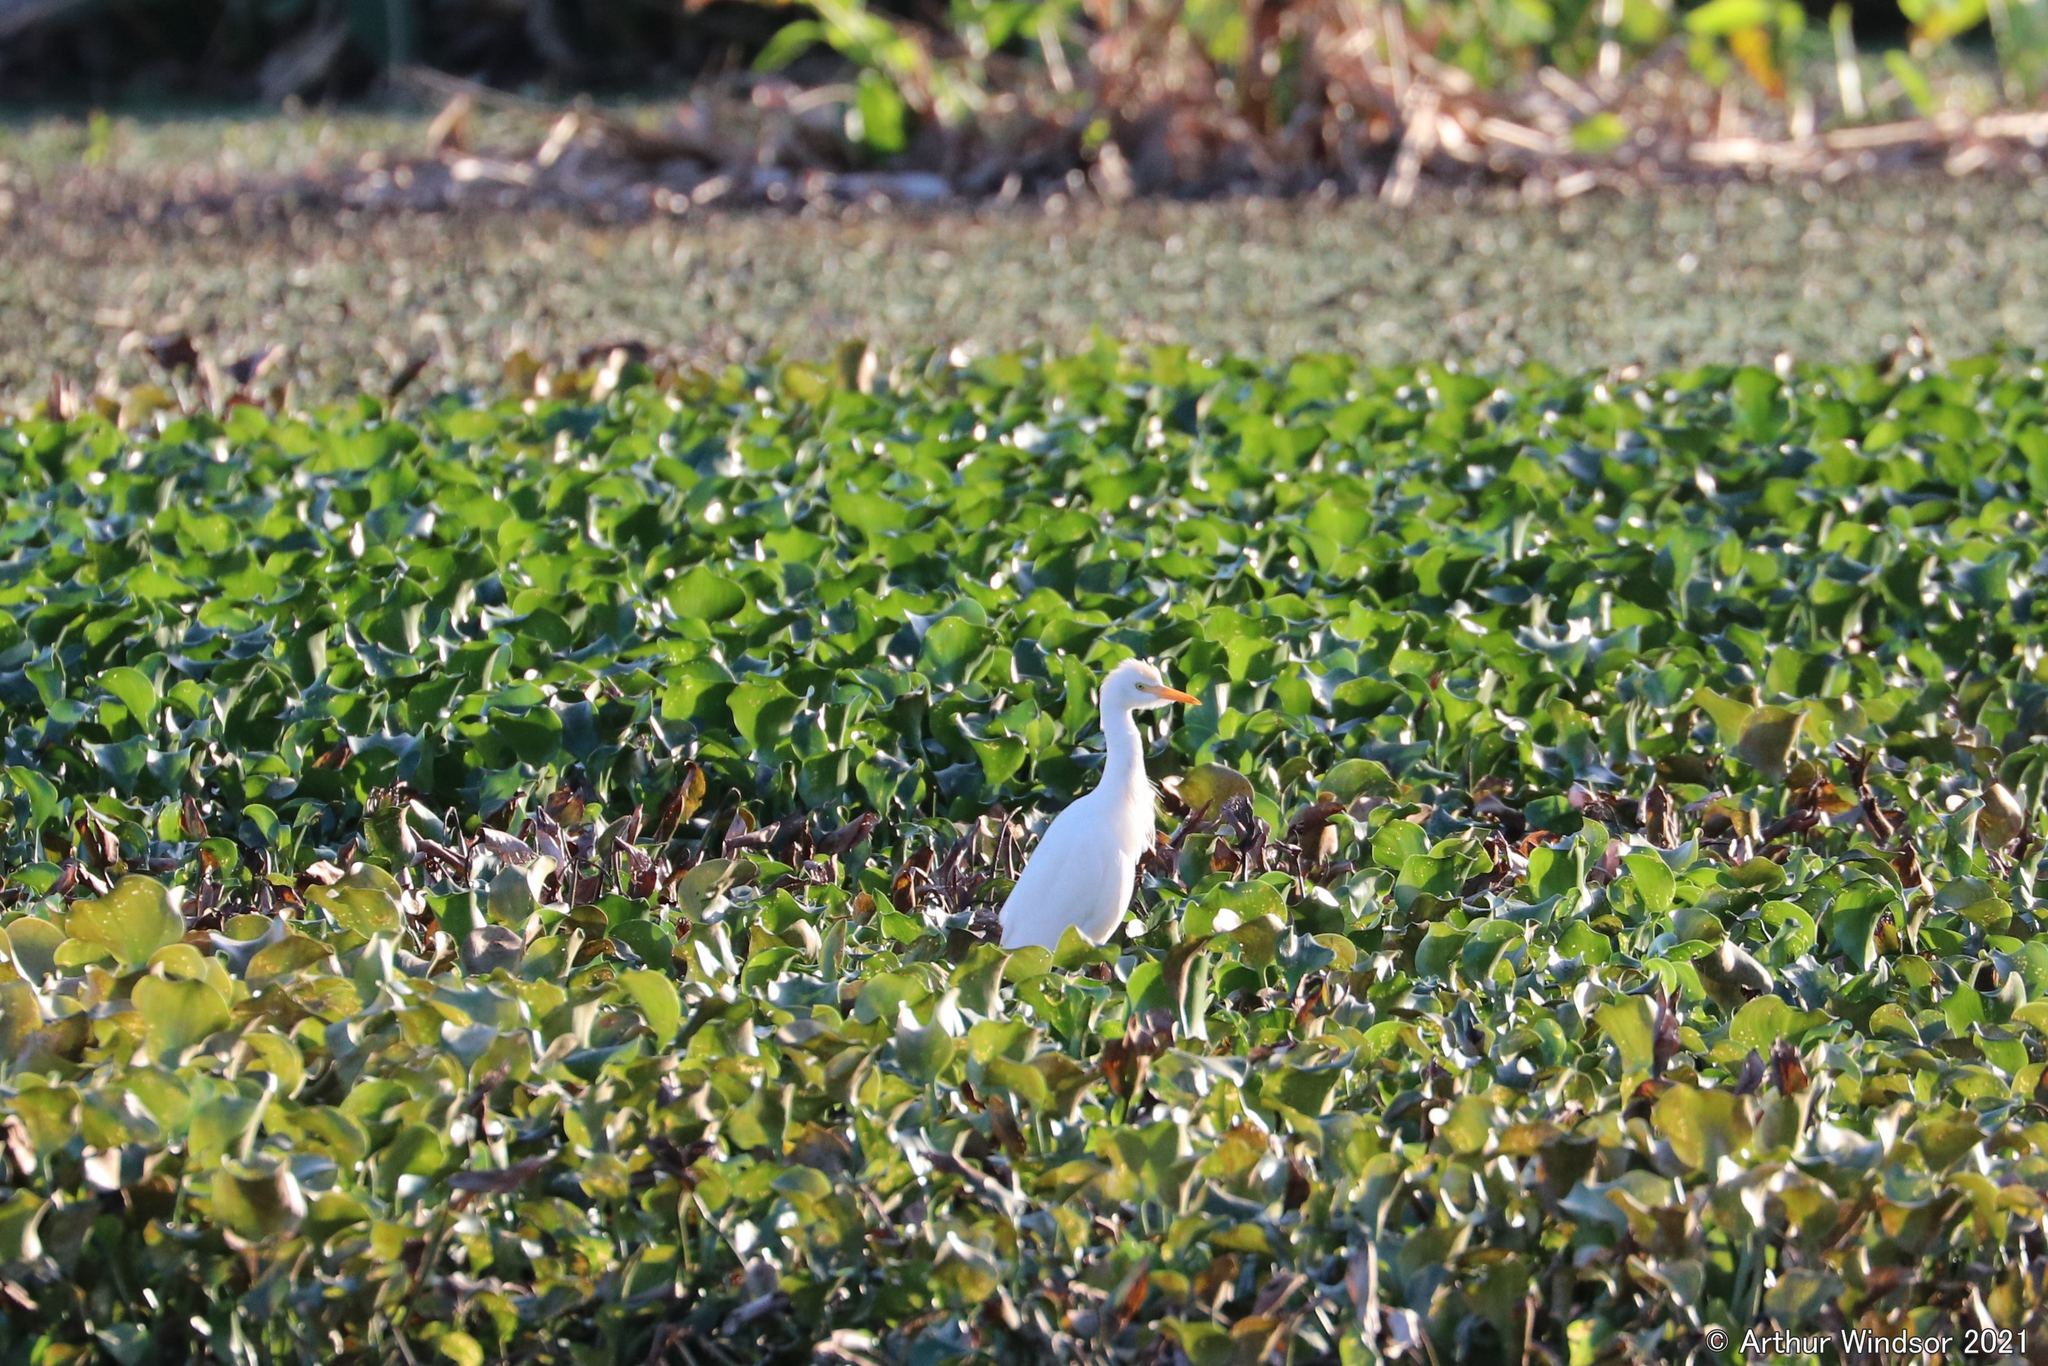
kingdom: Animalia
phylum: Chordata
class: Aves
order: Pelecaniformes
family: Ardeidae
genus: Bubulcus
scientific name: Bubulcus ibis
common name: Cattle egret
